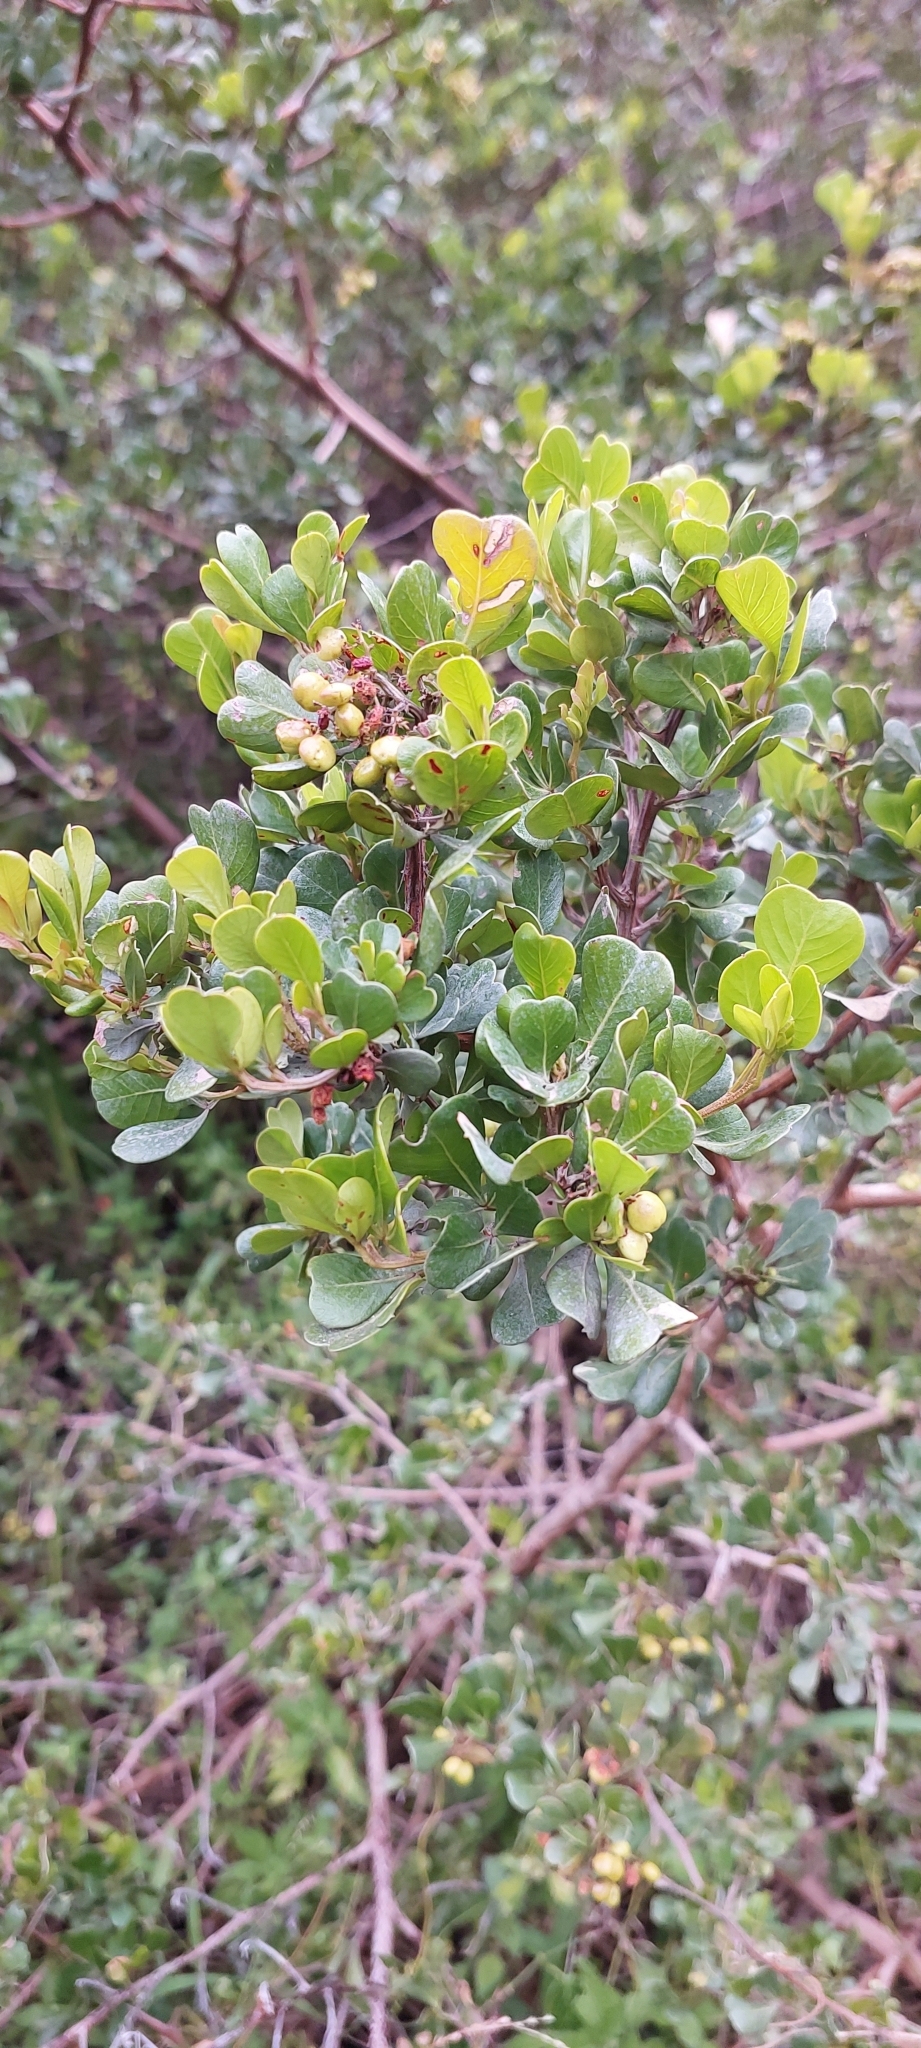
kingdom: Plantae
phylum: Tracheophyta
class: Magnoliopsida
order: Sapindales
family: Anacardiaceae
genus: Searsia
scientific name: Searsia glauca
